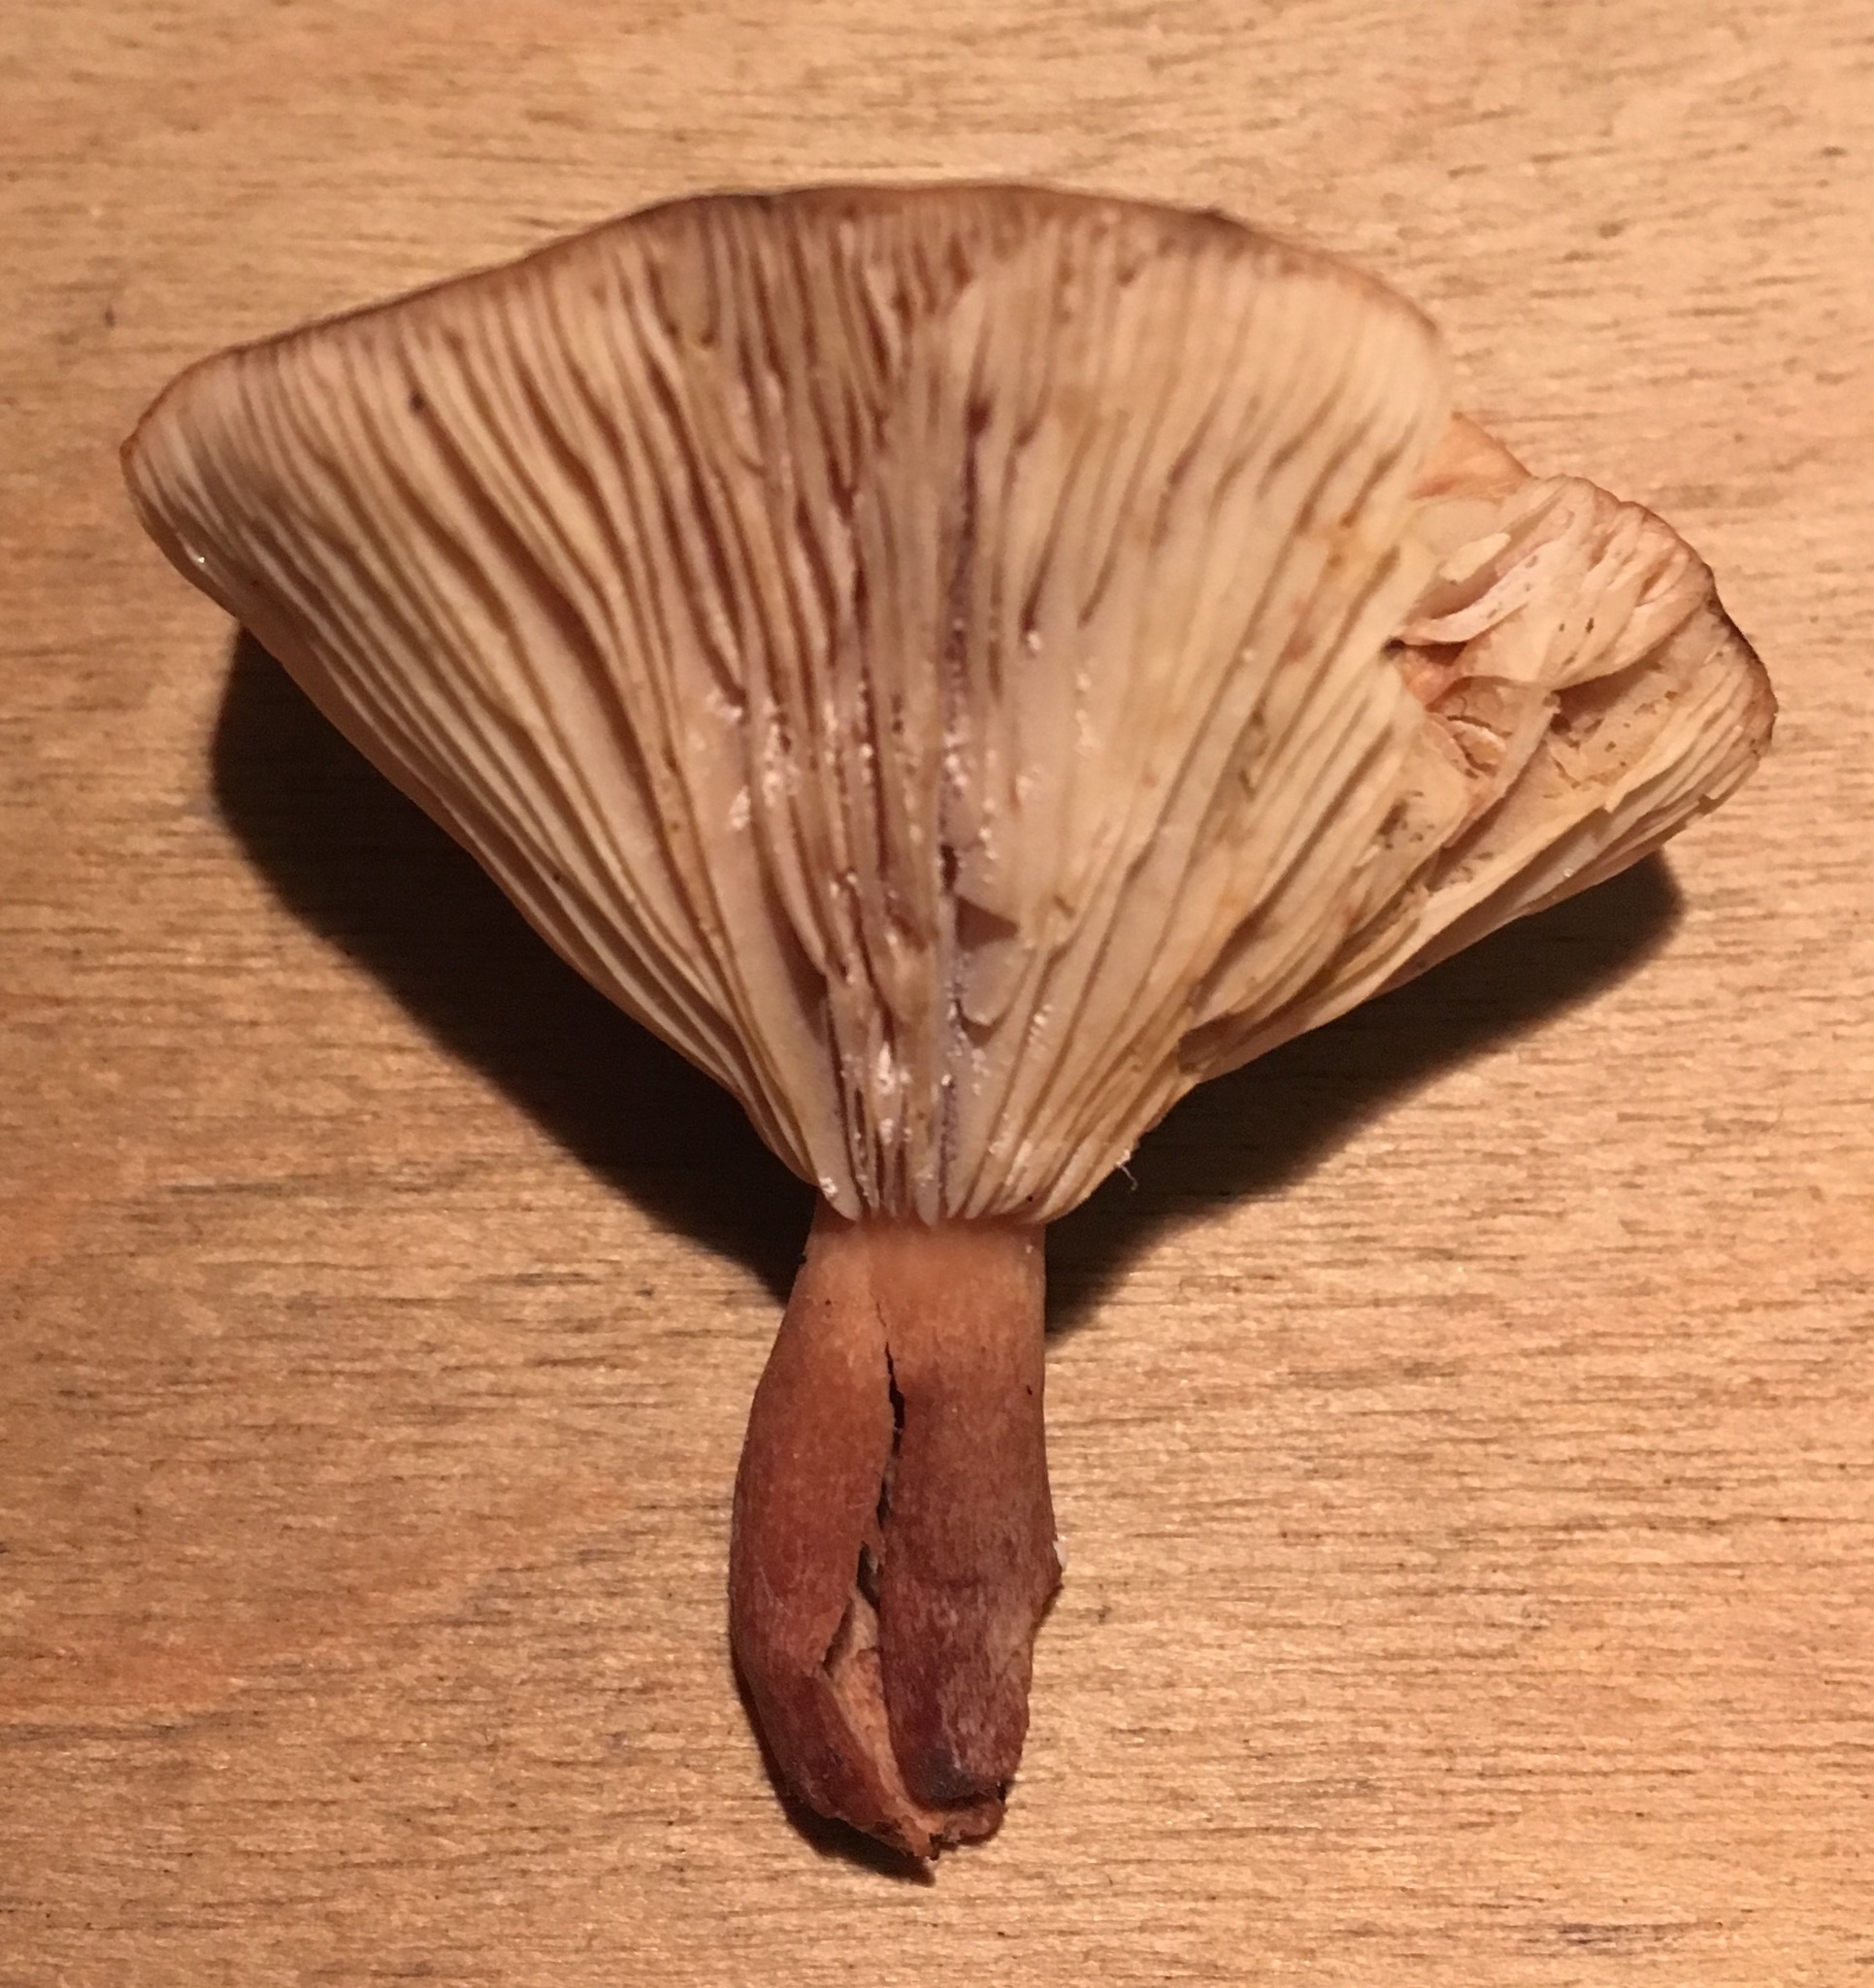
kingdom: Fungi
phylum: Basidiomycota
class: Agaricomycetes
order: Russulales
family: Russulaceae
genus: Lactarius
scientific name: Lactarius quietus
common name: Oak milk-cap
